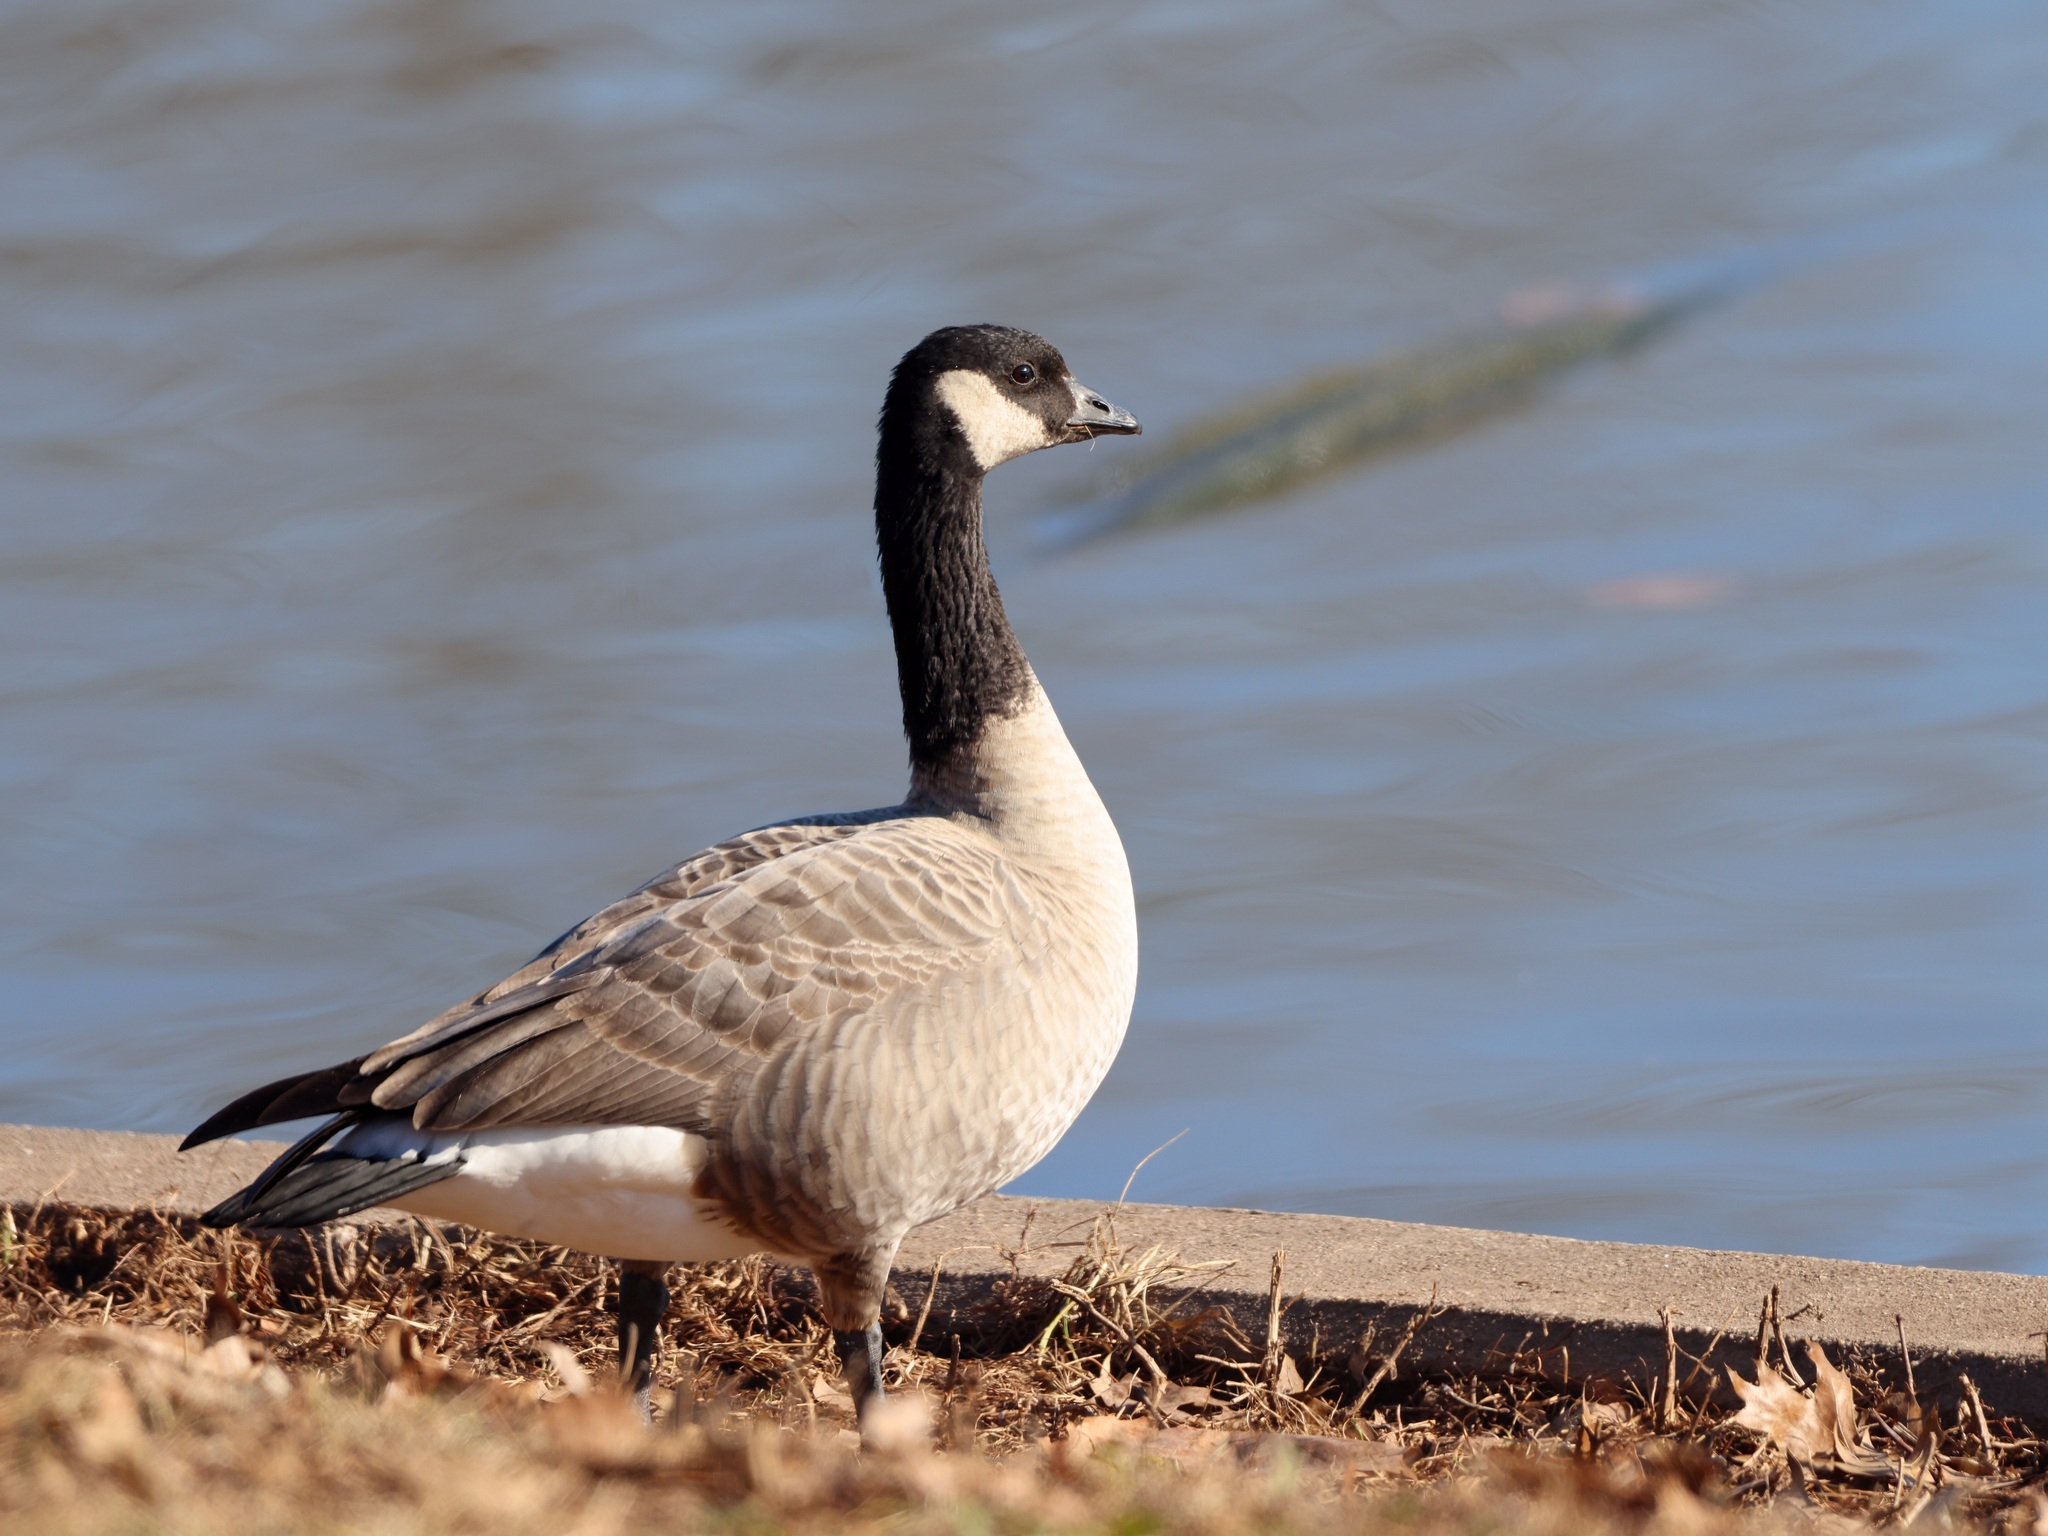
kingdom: Animalia
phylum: Chordata
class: Aves
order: Anseriformes
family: Anatidae
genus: Branta
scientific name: Branta hutchinsii
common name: Cackling goose
